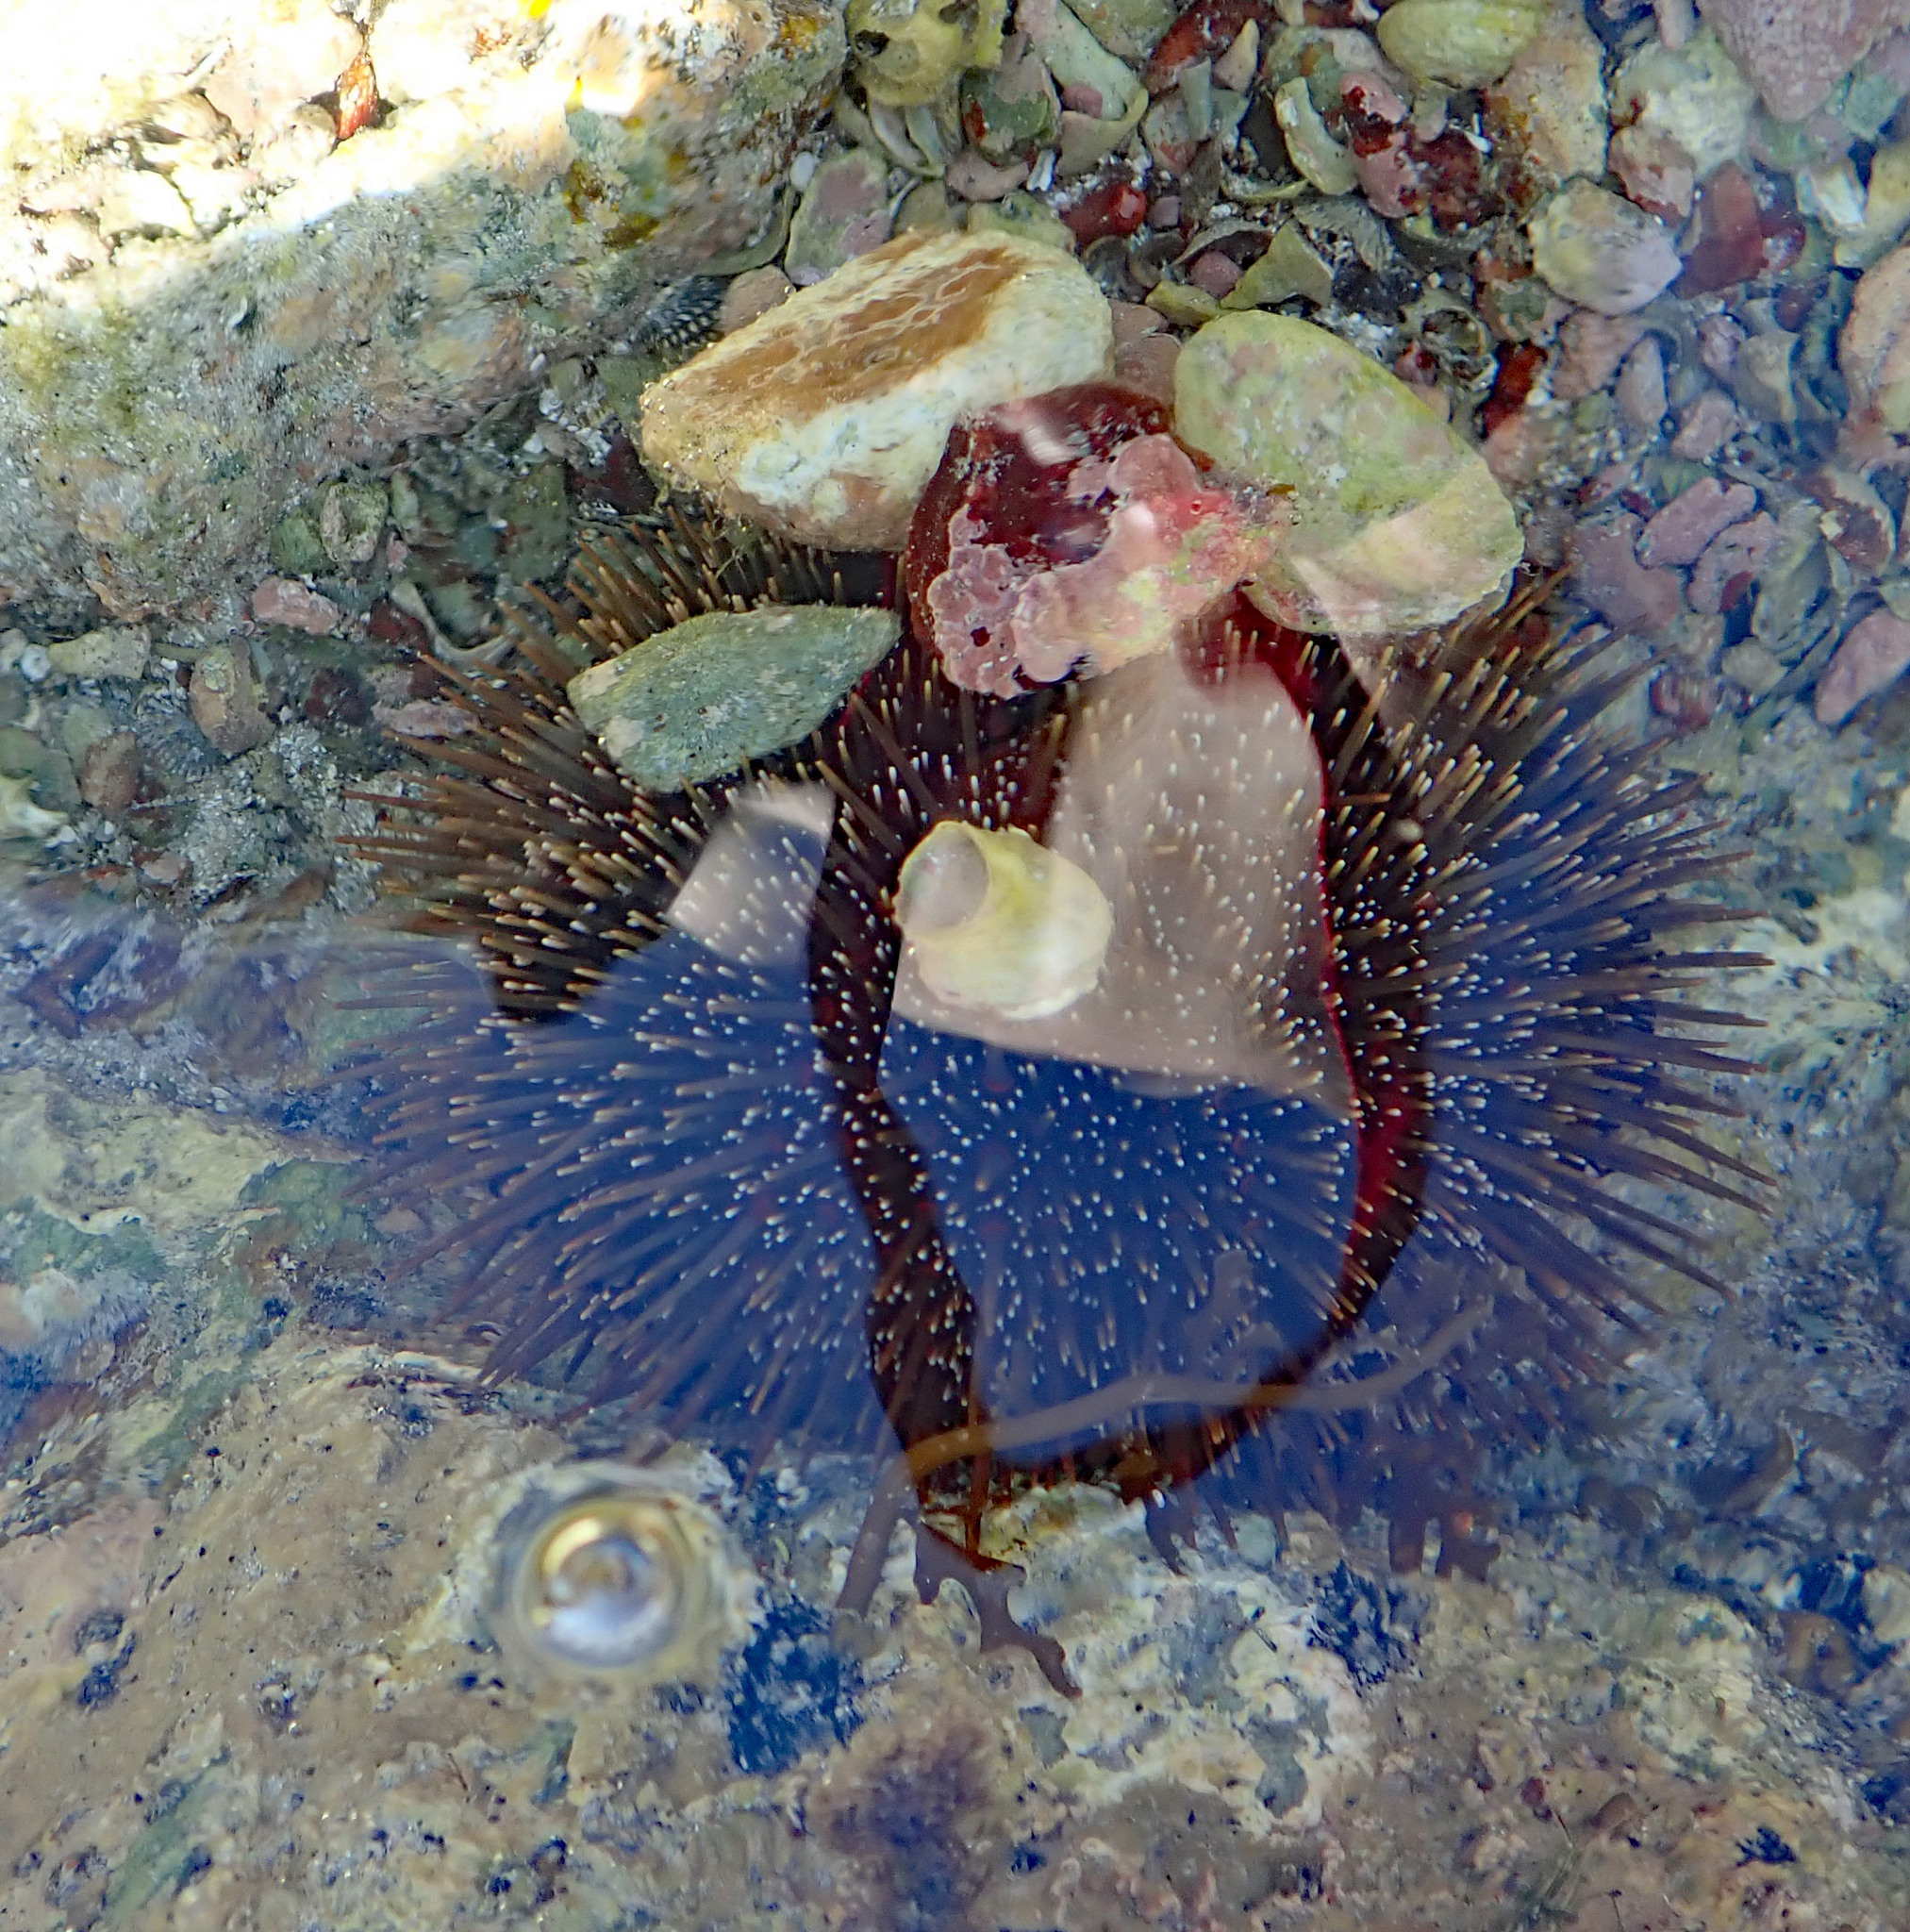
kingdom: Animalia
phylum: Echinodermata
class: Echinoidea
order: Camarodonta
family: Echinometridae
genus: Evechinus
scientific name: Evechinus chloroticus
